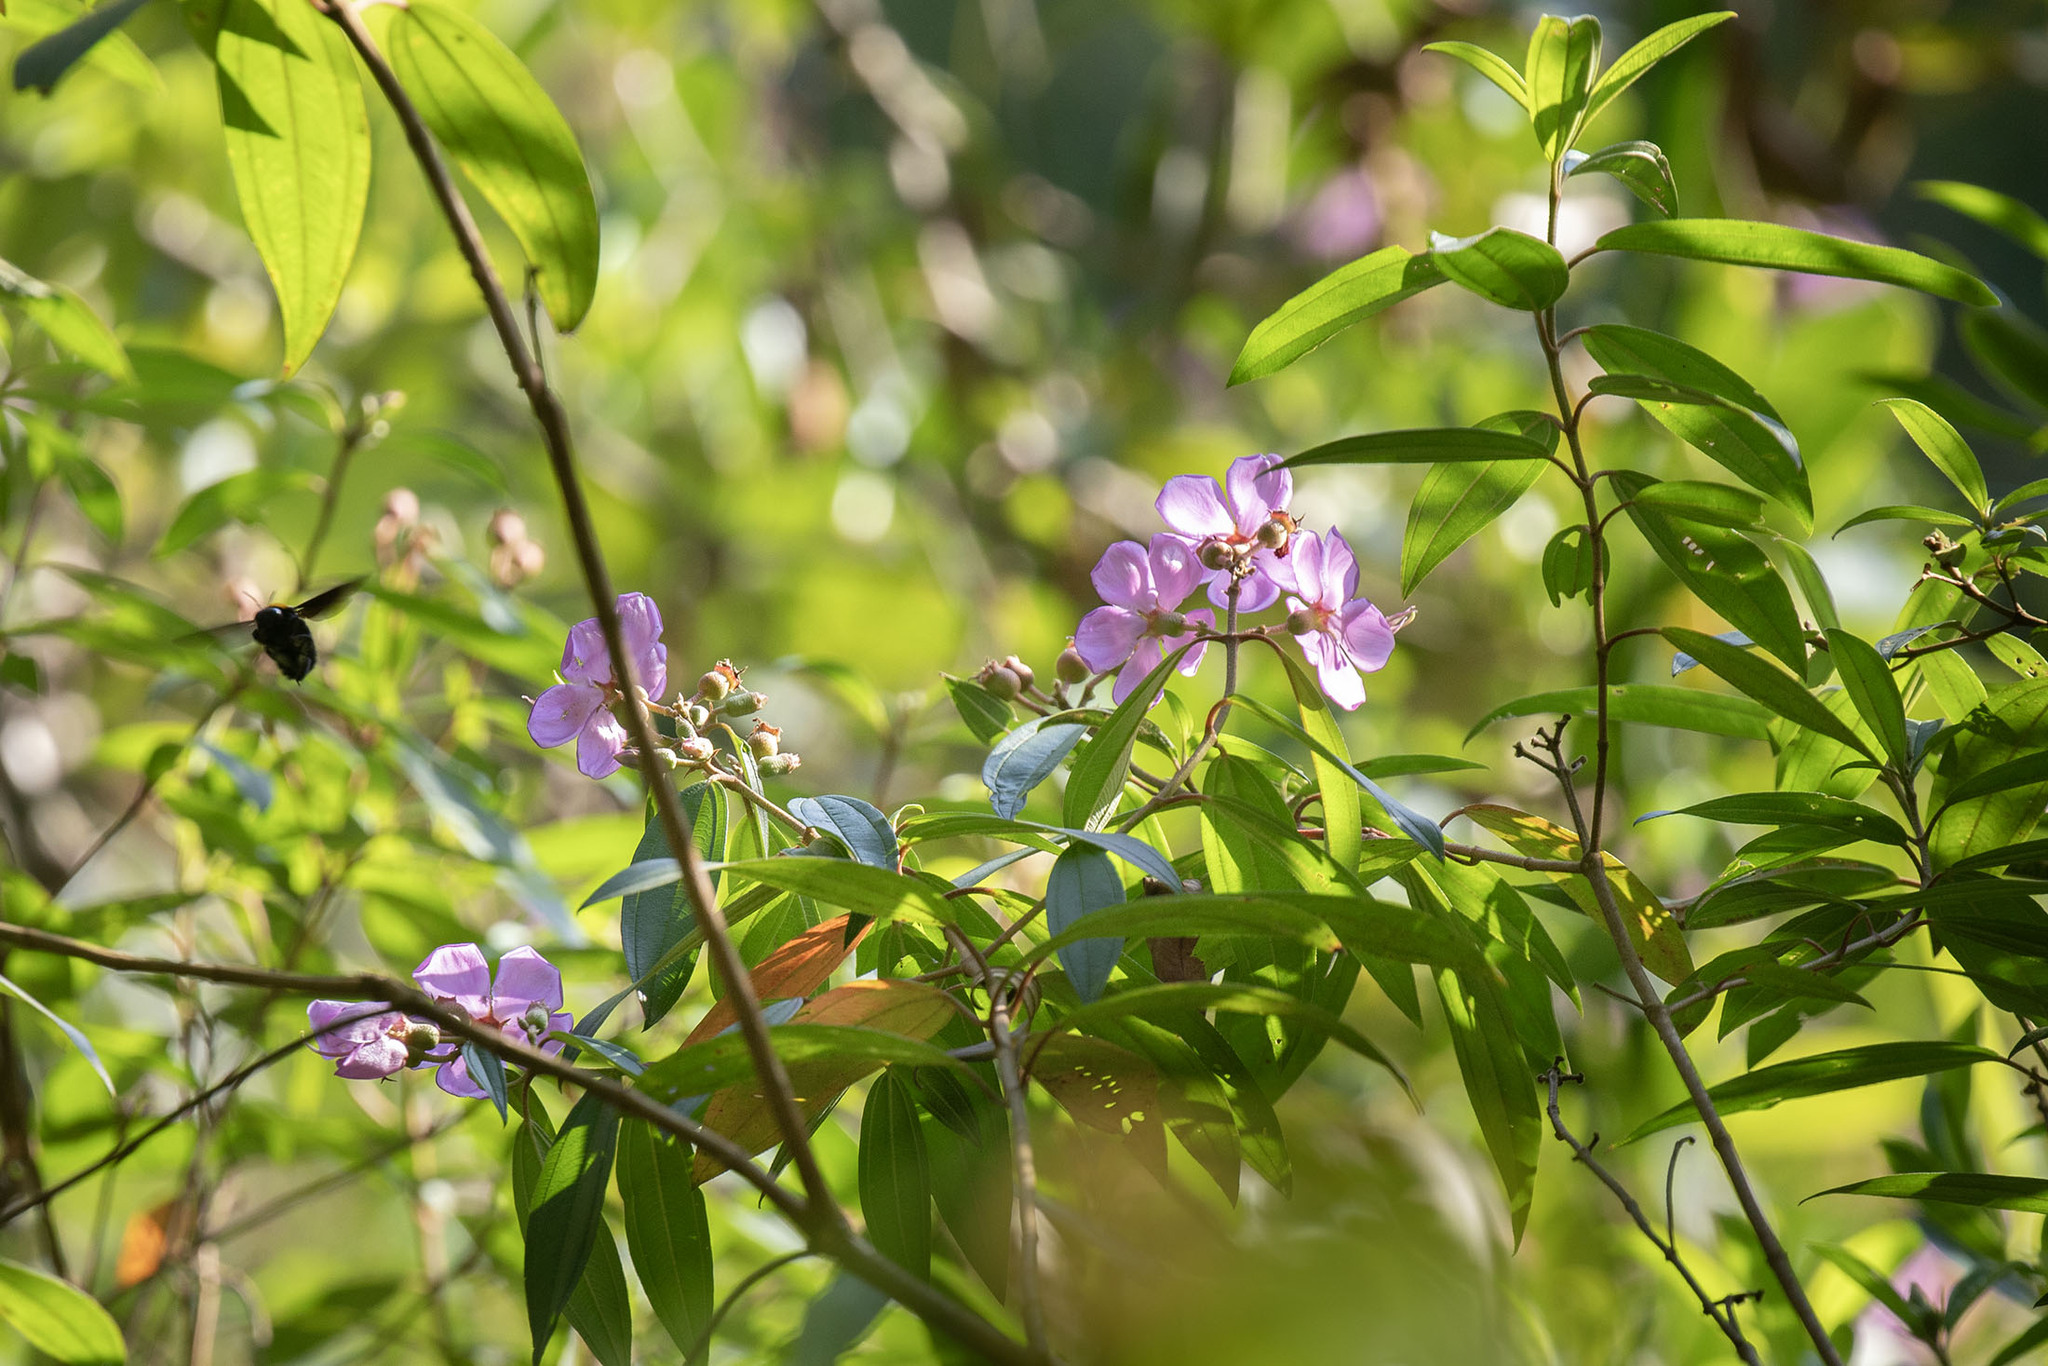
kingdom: Plantae
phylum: Tracheophyta
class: Magnoliopsida
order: Myrtales
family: Melastomataceae
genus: Melastoma
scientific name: Melastoma malabathricum
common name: Indian-rhododendron
